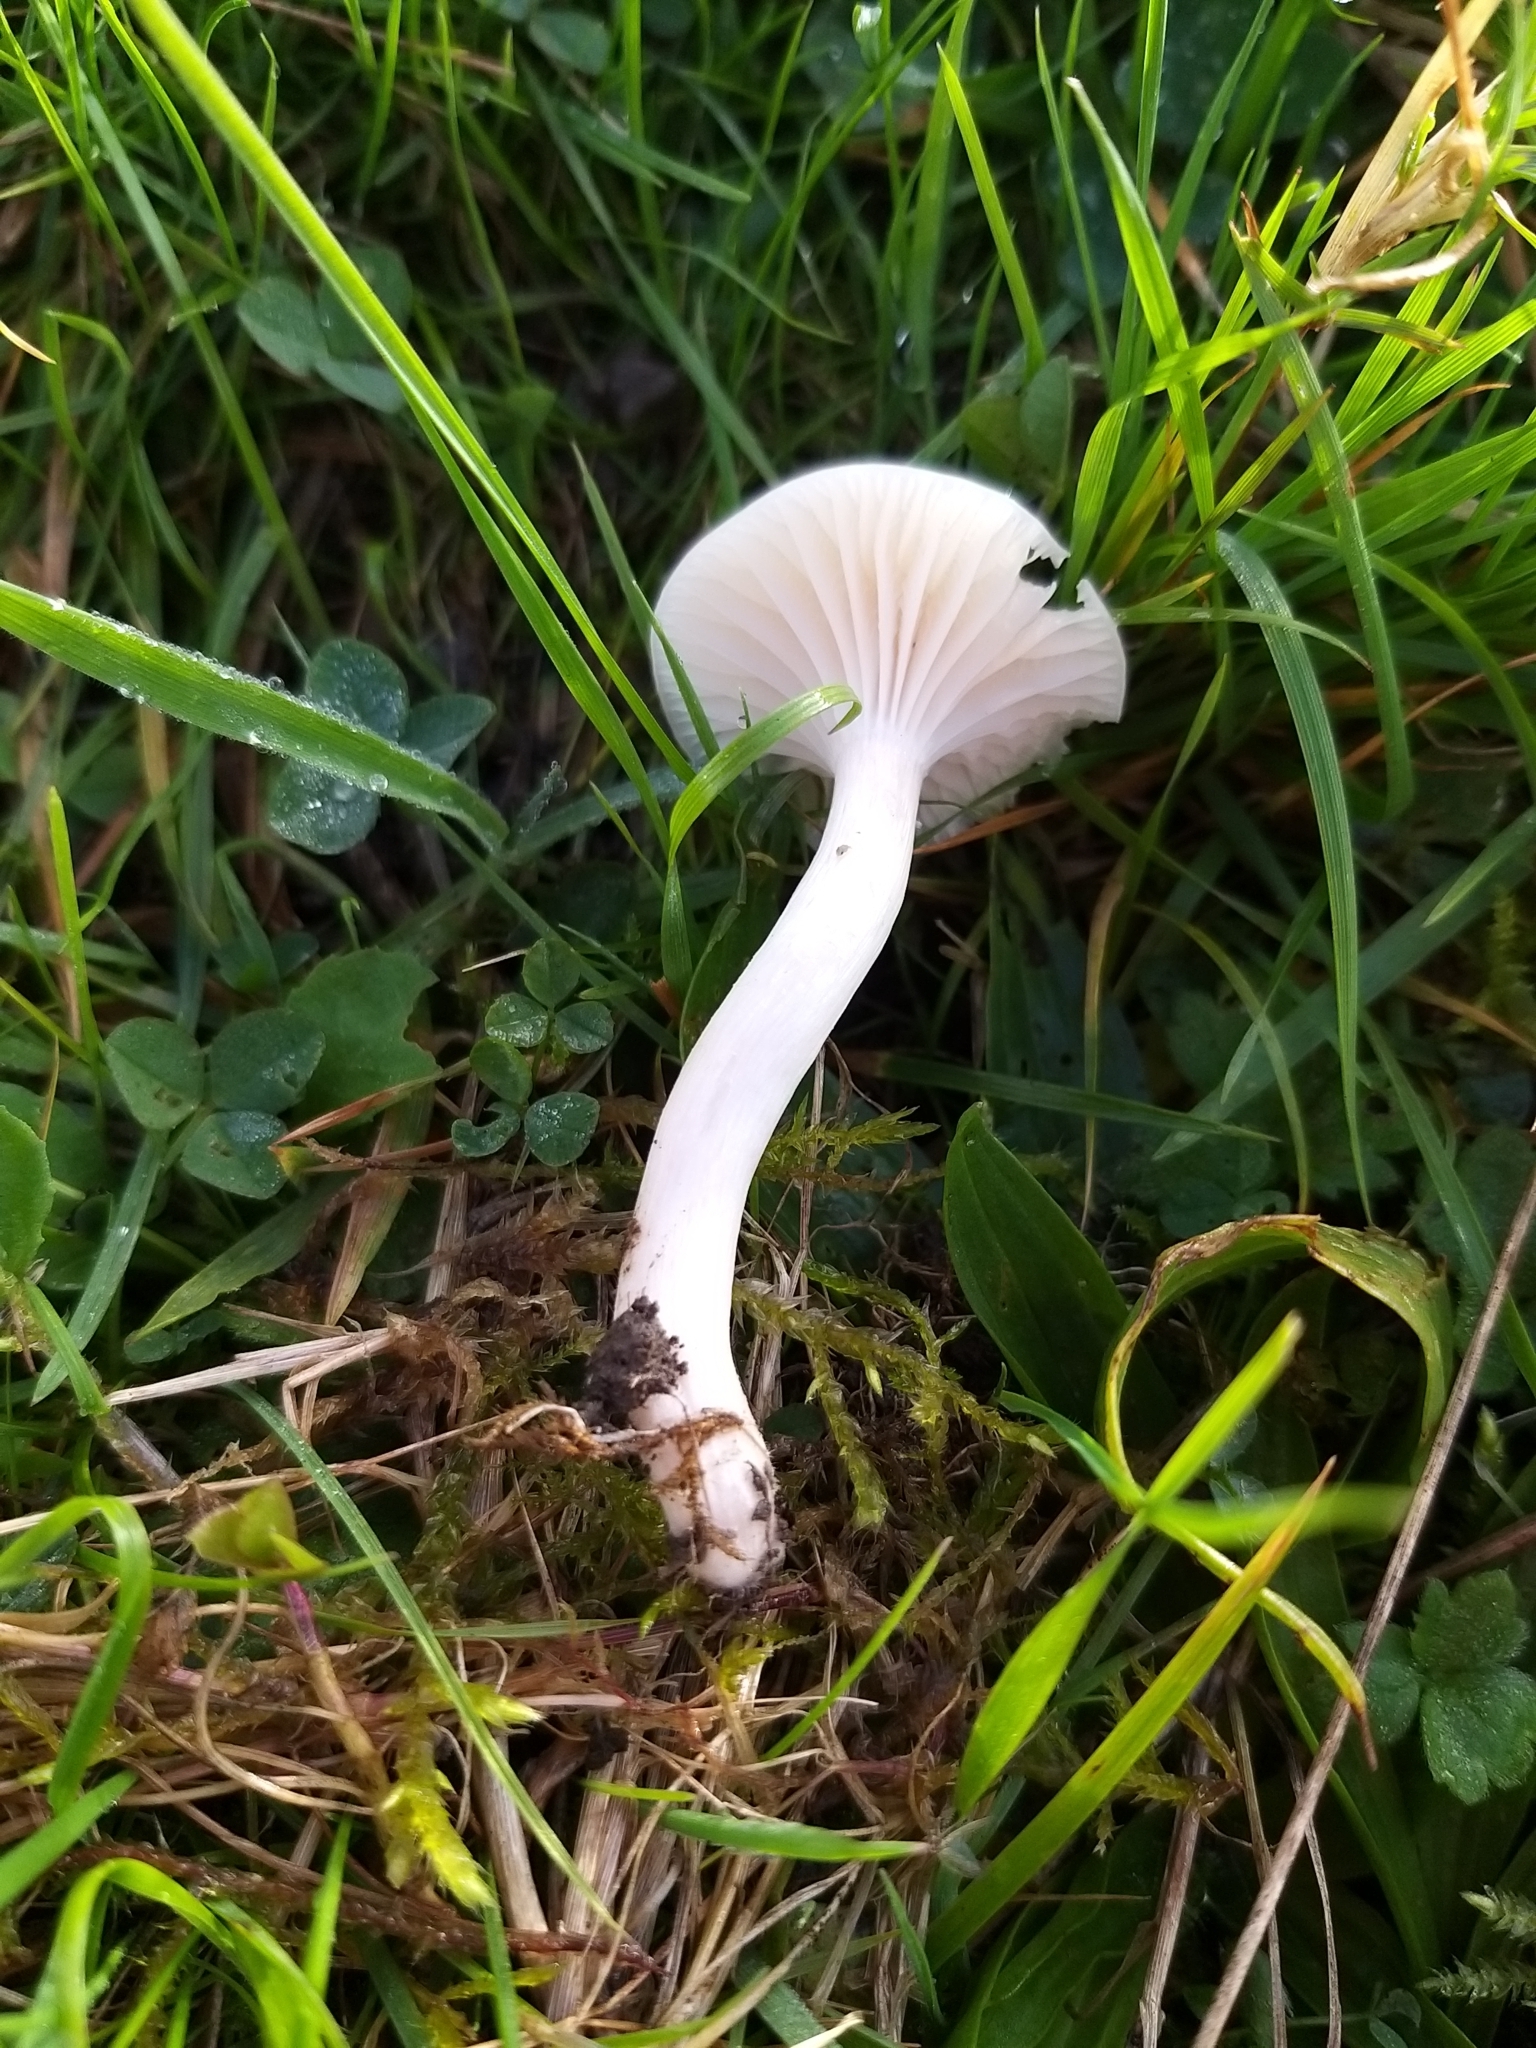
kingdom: Fungi
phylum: Basidiomycota
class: Agaricomycetes
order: Agaricales
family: Hygrophoraceae
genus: Cuphophyllus
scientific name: Cuphophyllus virgineus
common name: Snowy waxcap
